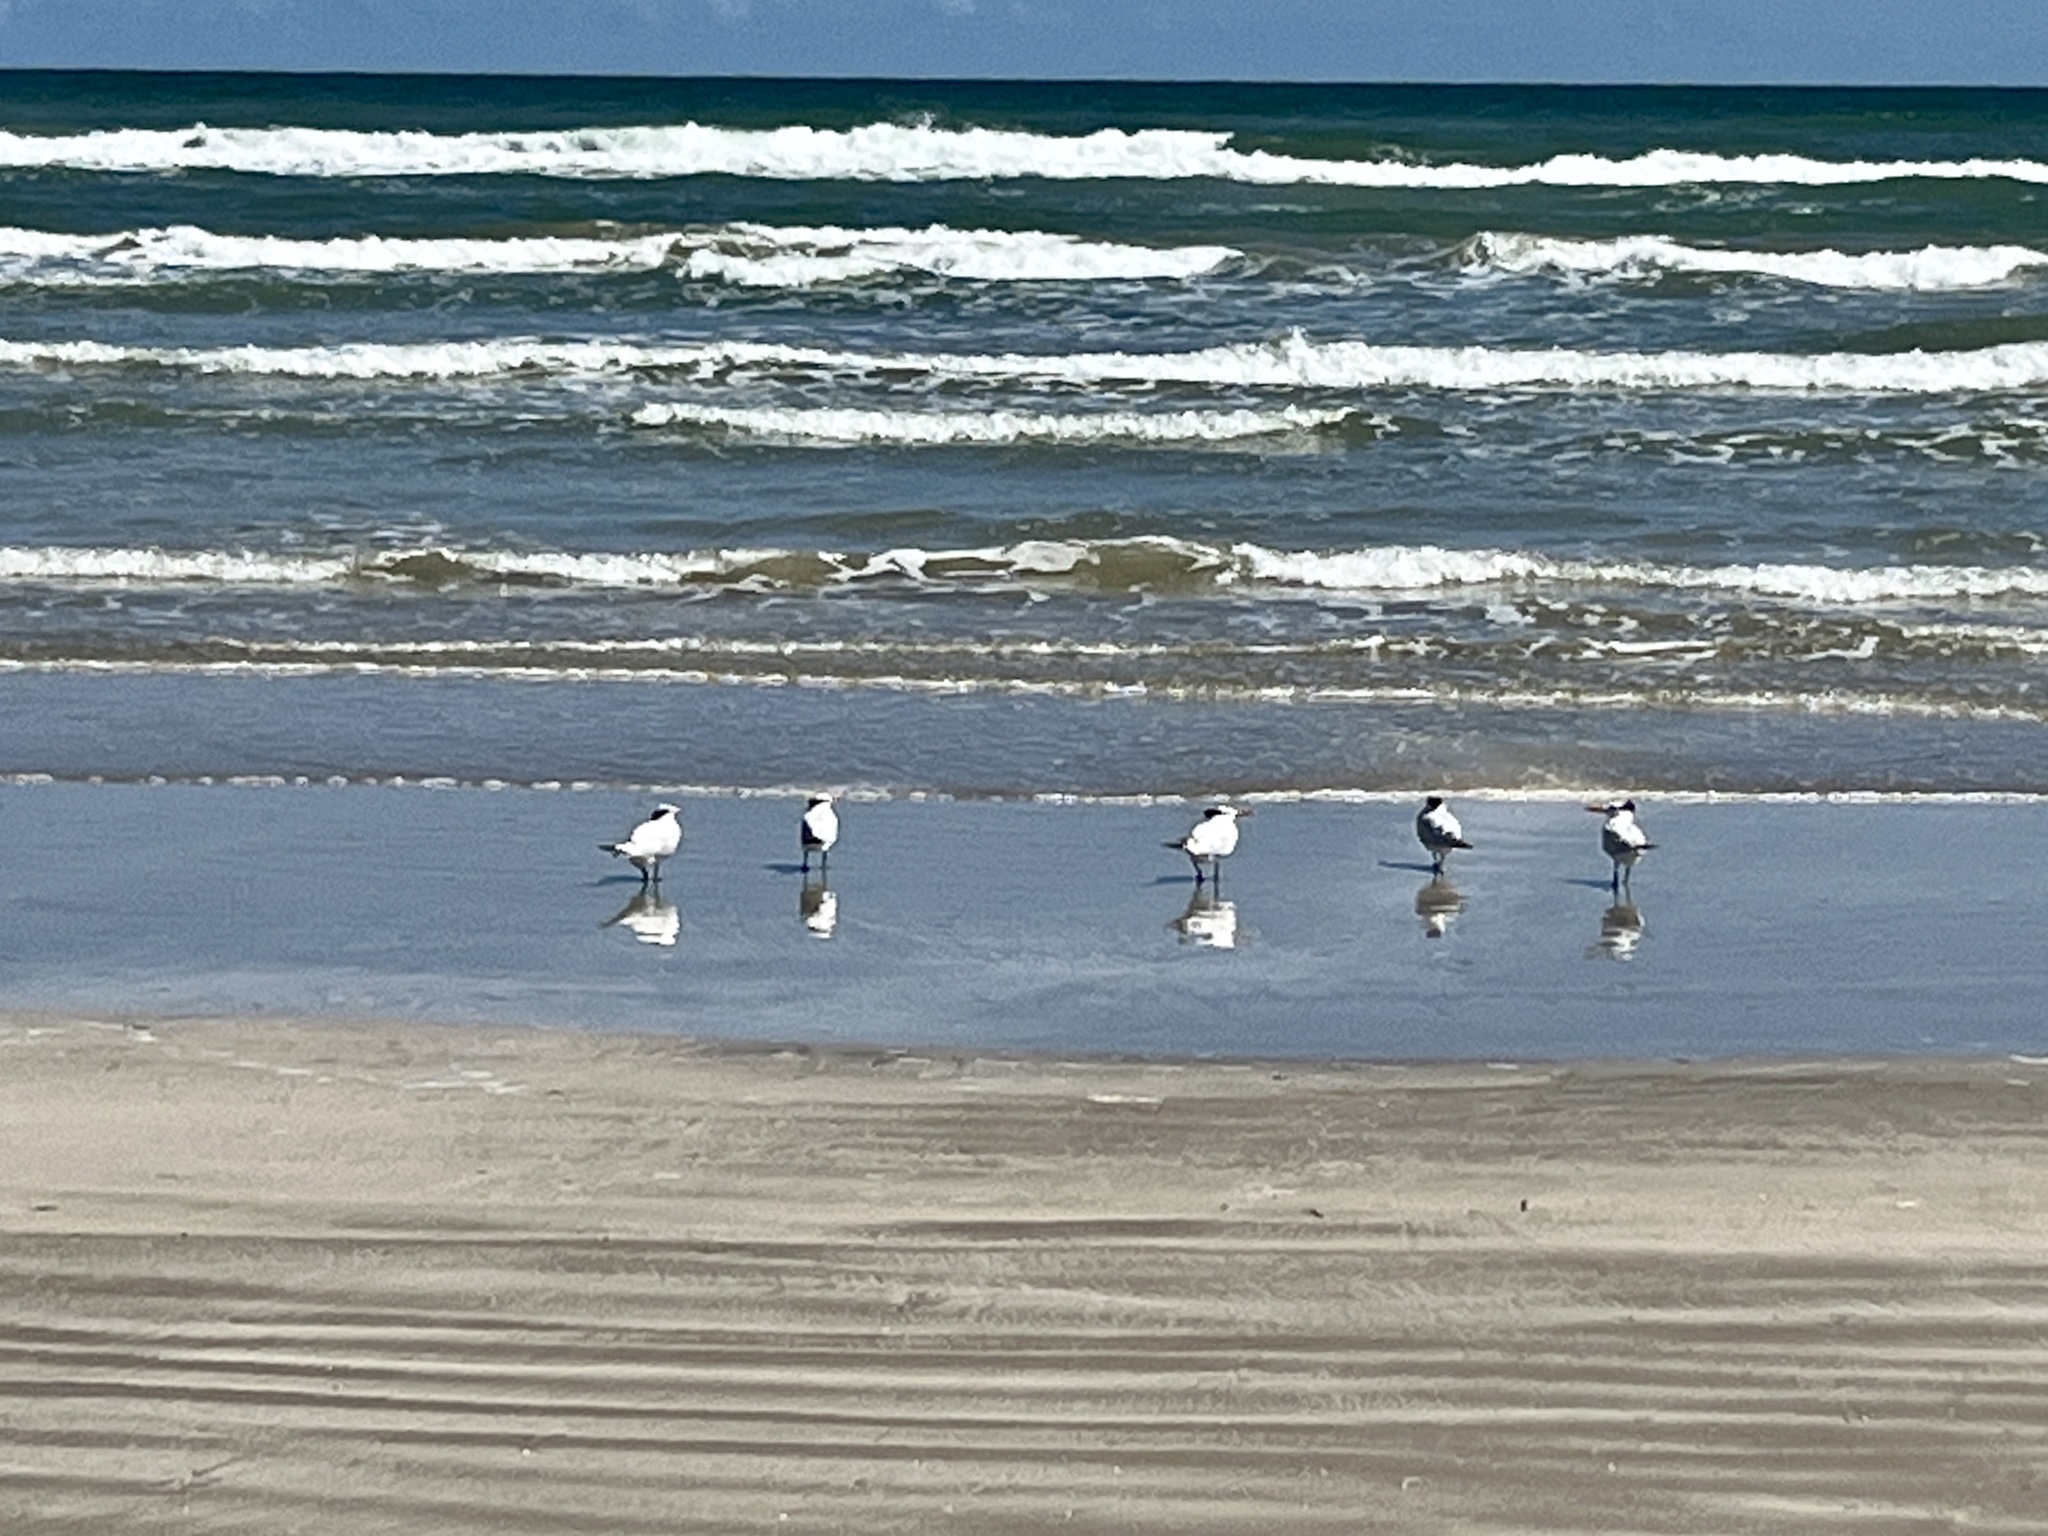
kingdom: Animalia
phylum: Chordata
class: Aves
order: Charadriiformes
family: Laridae
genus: Thalasseus
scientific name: Thalasseus maximus
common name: Royal tern
